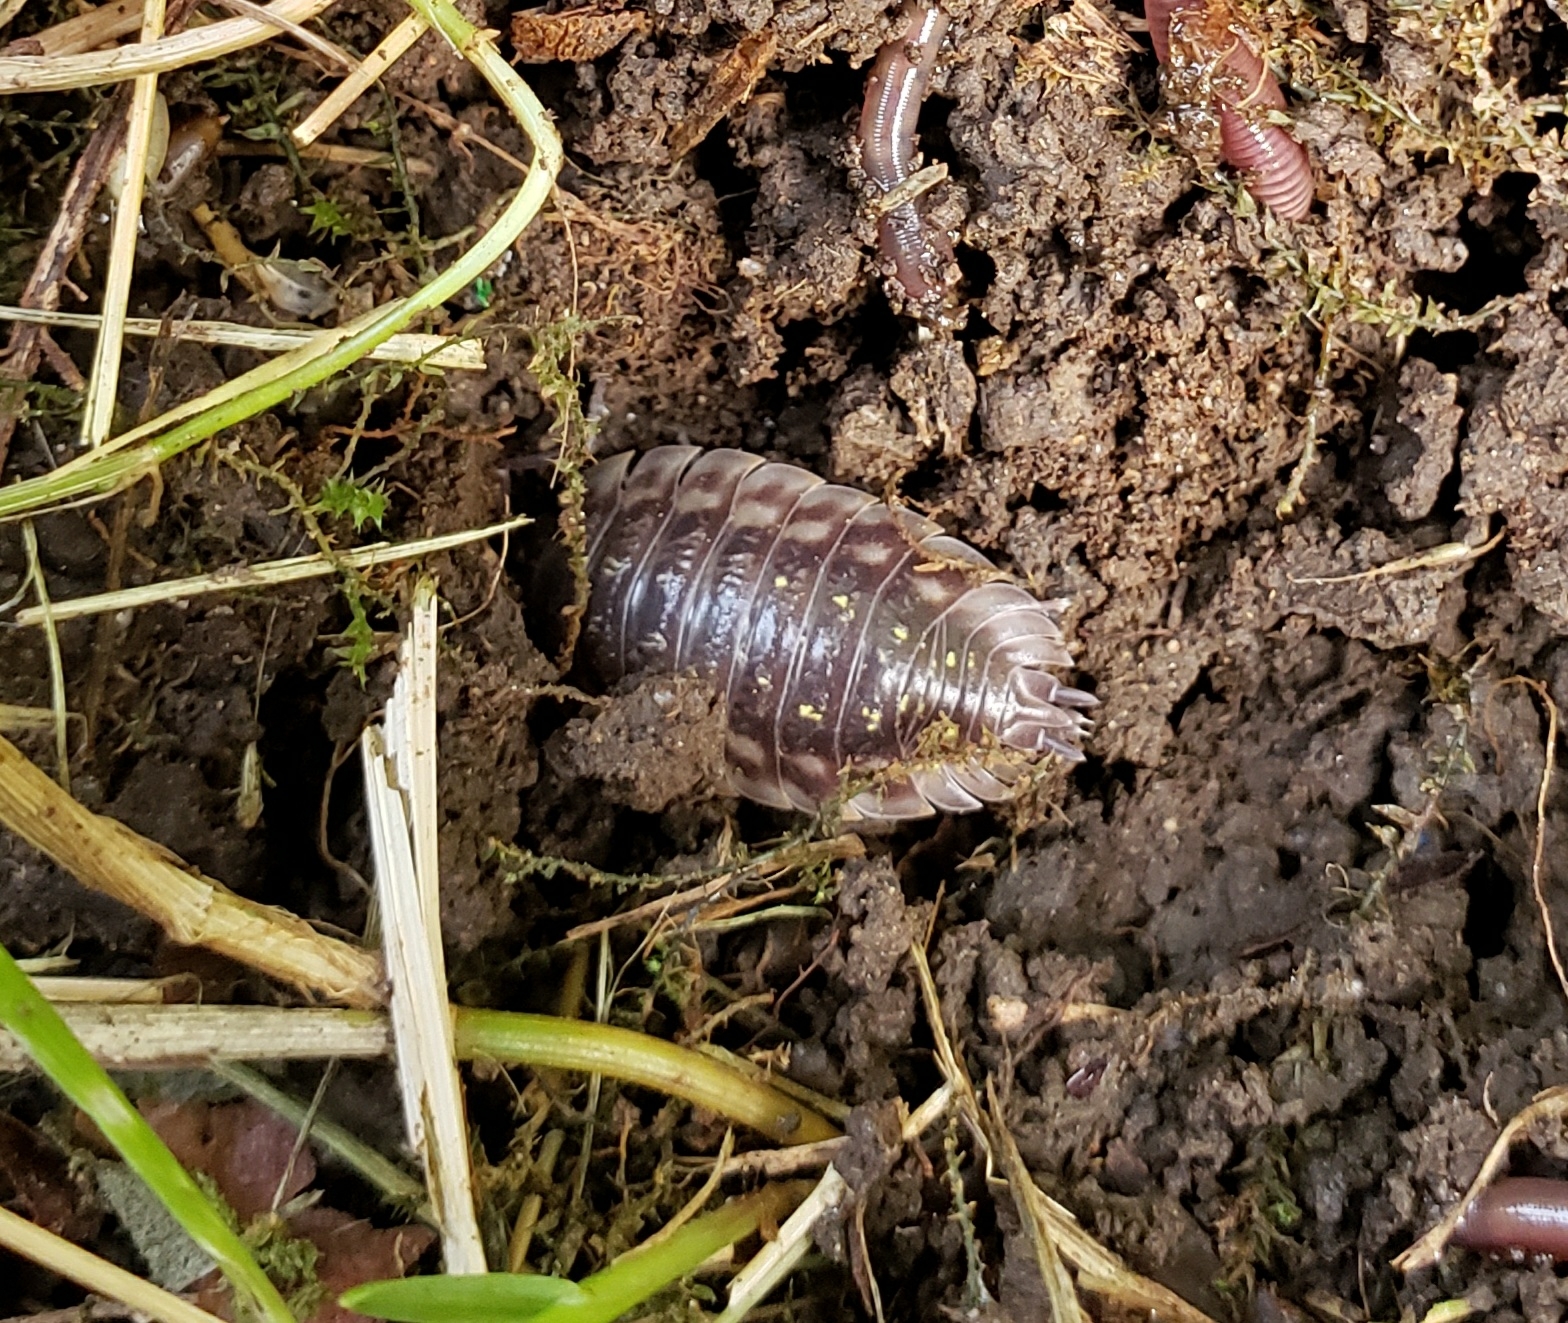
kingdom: Animalia
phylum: Arthropoda
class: Malacostraca
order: Isopoda
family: Oniscidae
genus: Oniscus
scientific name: Oniscus asellus
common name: Common shiny woodlouse
